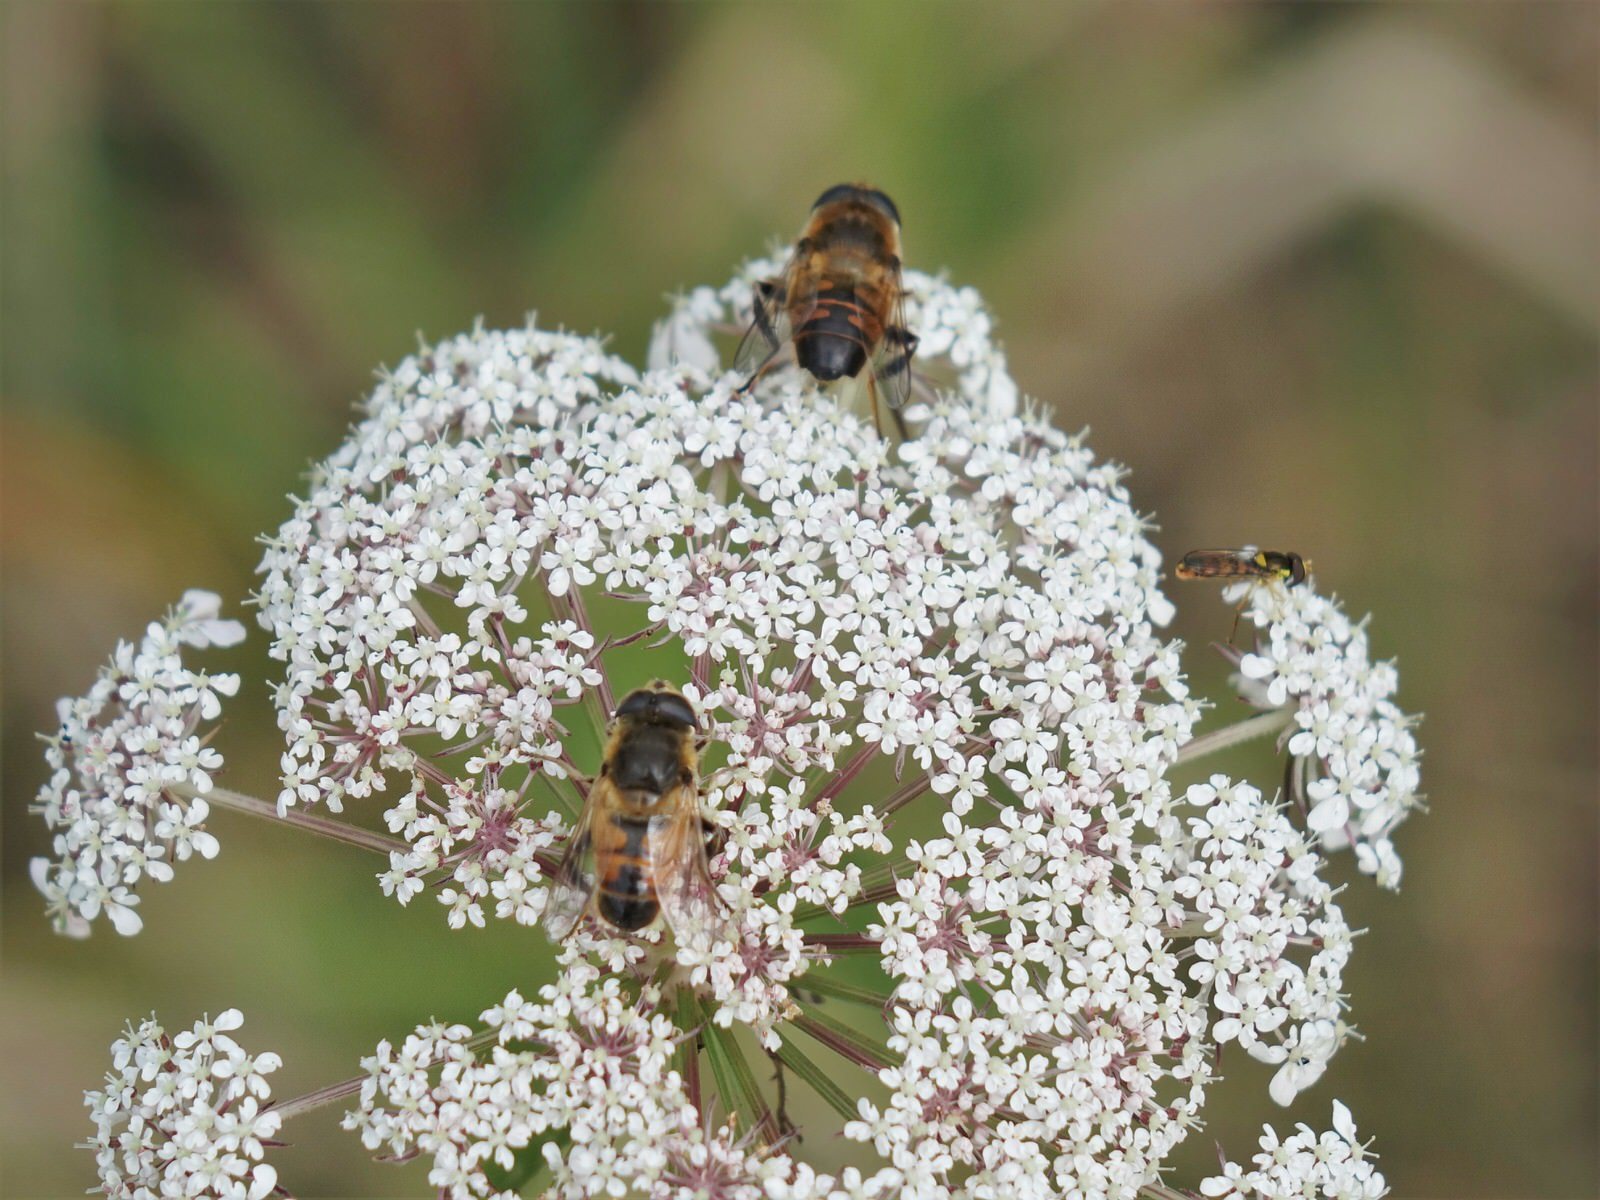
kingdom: Animalia
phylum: Arthropoda
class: Insecta
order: Diptera
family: Syrphidae
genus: Eristalis
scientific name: Eristalis tenax
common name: Drone fly
